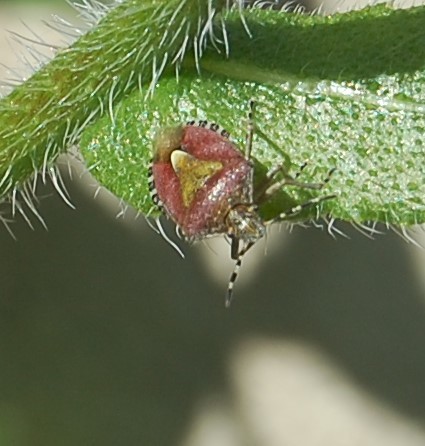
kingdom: Animalia
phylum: Arthropoda
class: Insecta
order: Hemiptera
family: Pentatomidae
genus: Dolycoris
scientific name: Dolycoris baccarum
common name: Sloe bug
